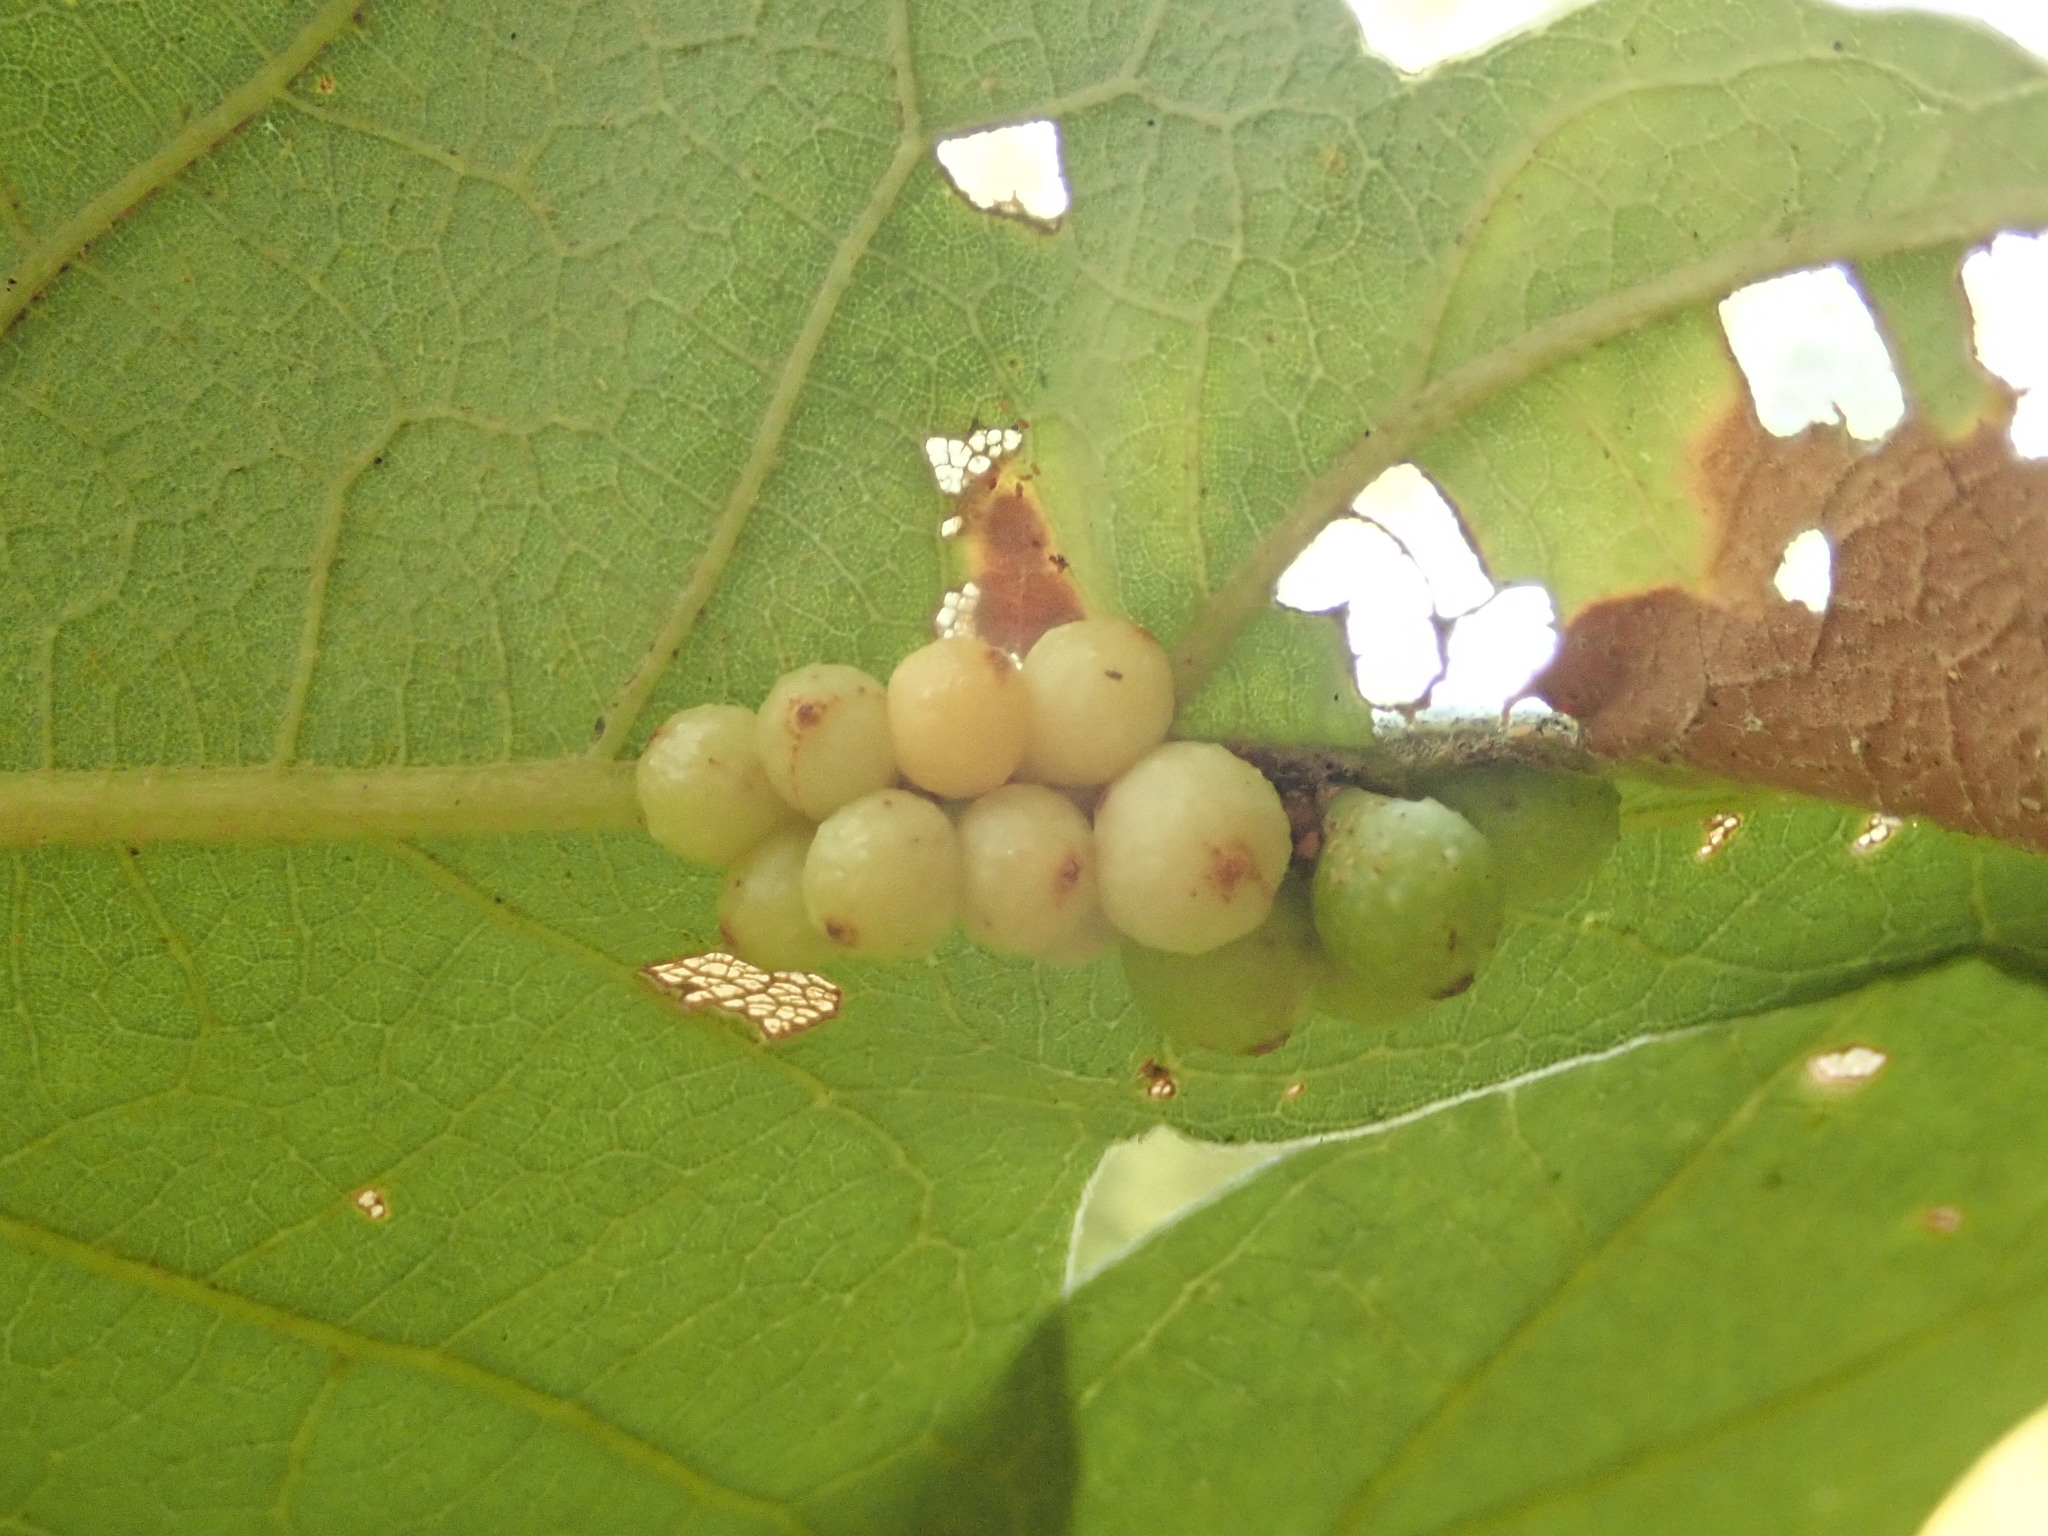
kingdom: Animalia
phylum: Arthropoda
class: Insecta
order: Hymenoptera
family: Cynipidae
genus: Andricus
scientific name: Andricus
